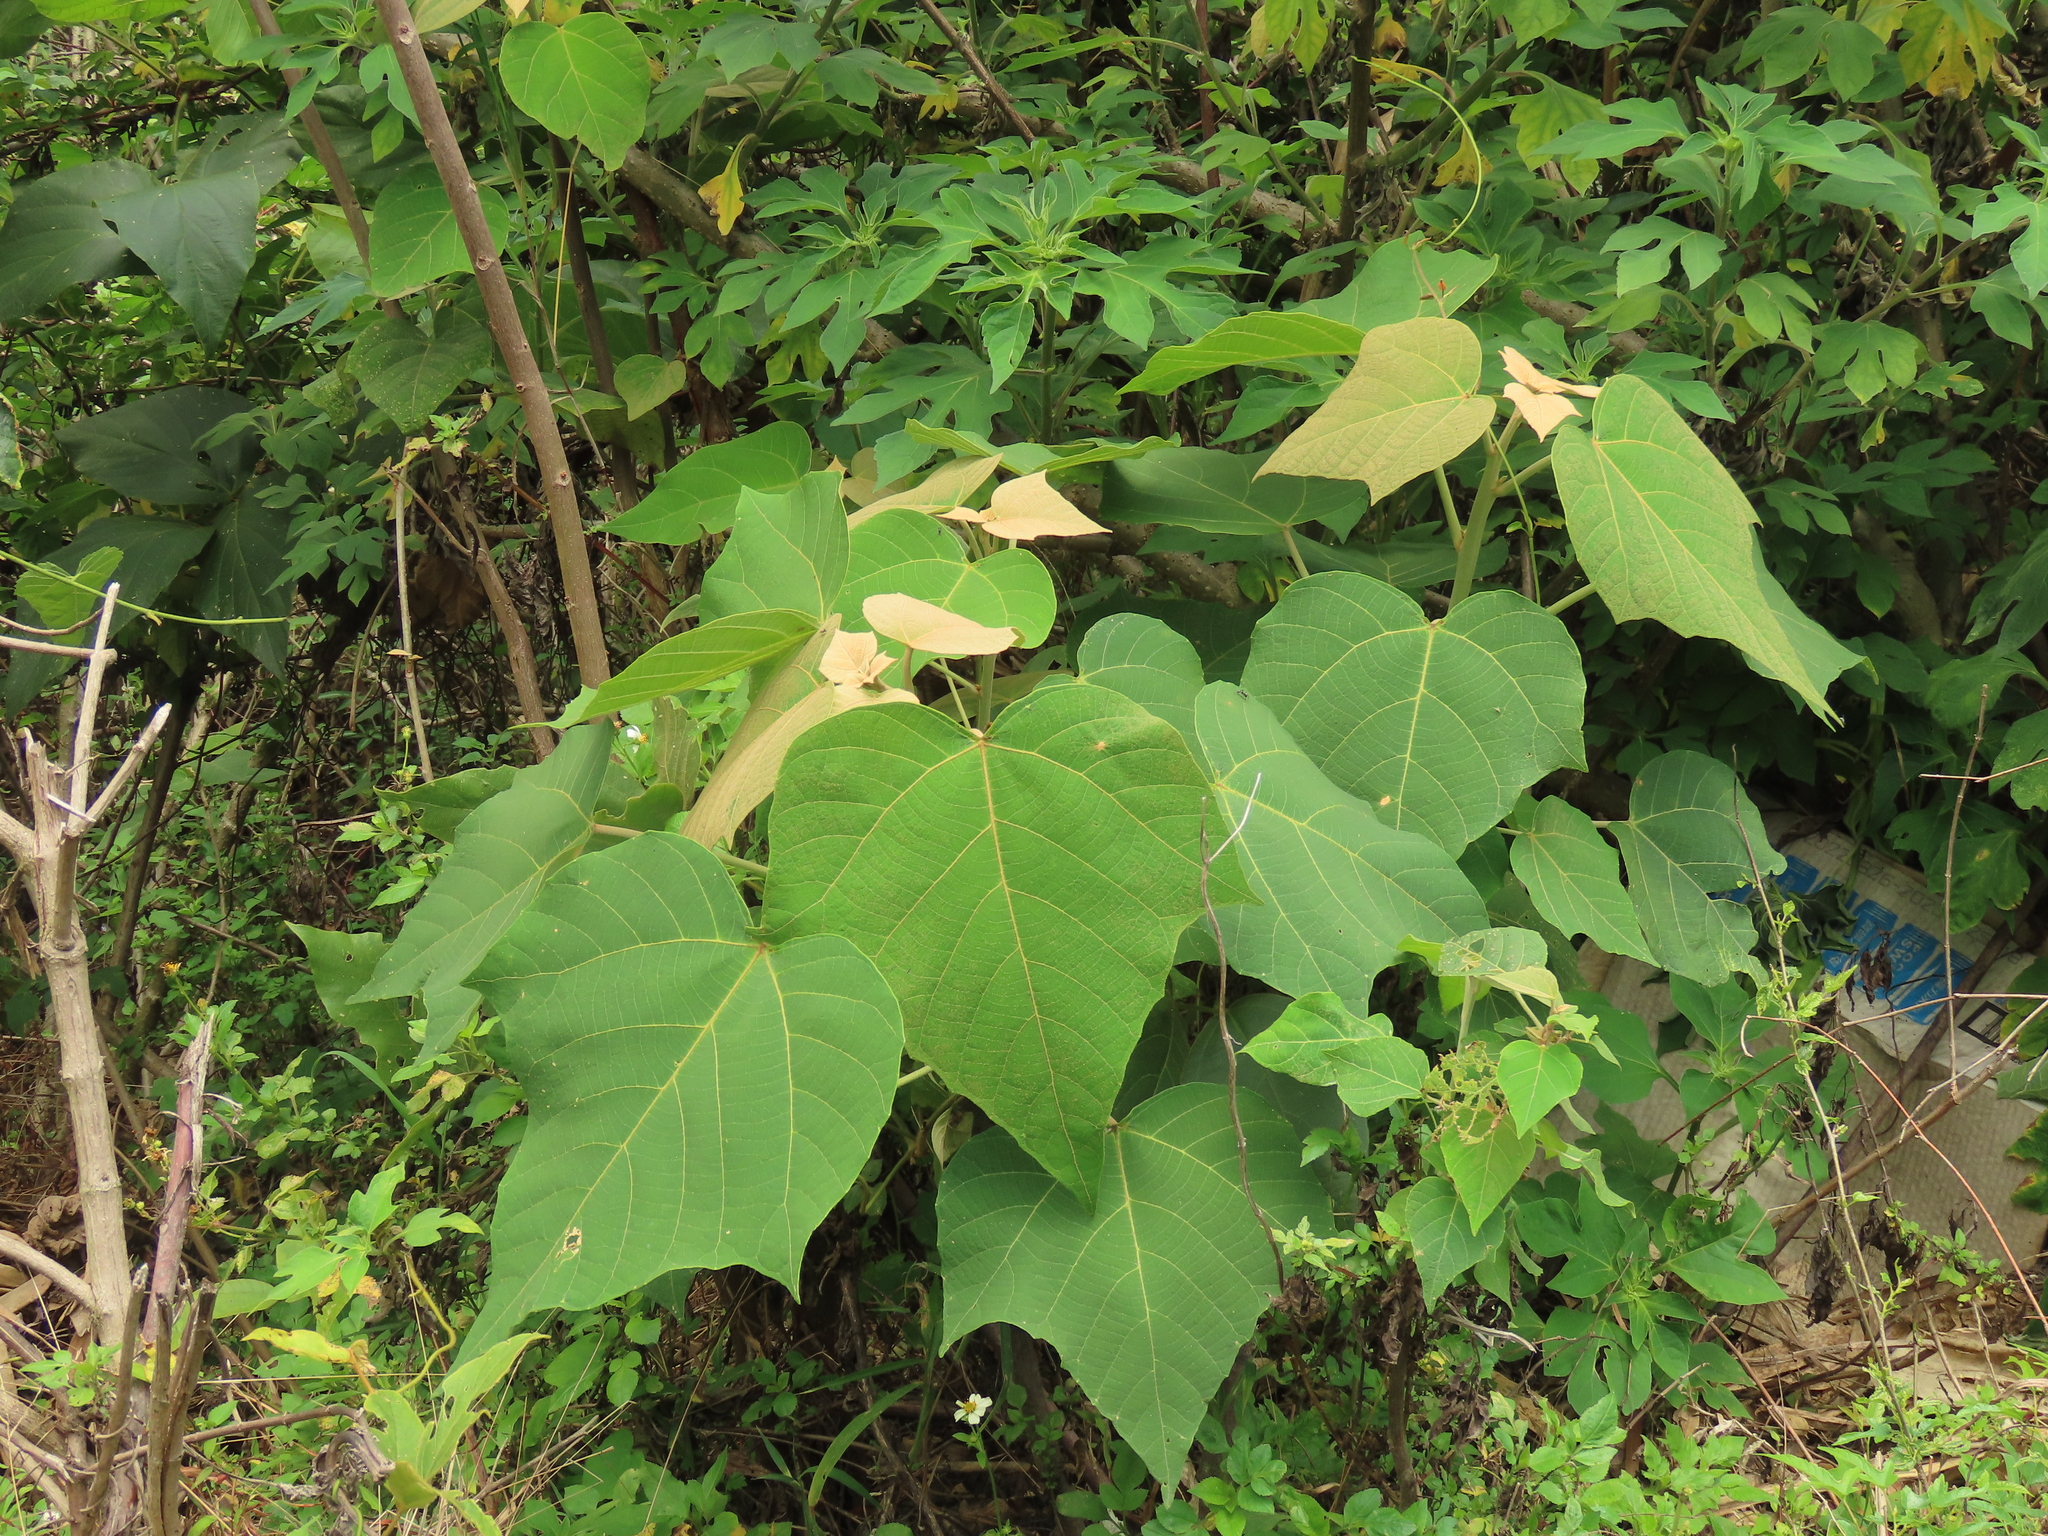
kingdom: Plantae
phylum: Tracheophyta
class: Magnoliopsida
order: Malpighiales
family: Euphorbiaceae
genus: Mallotus
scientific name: Mallotus japonicus
